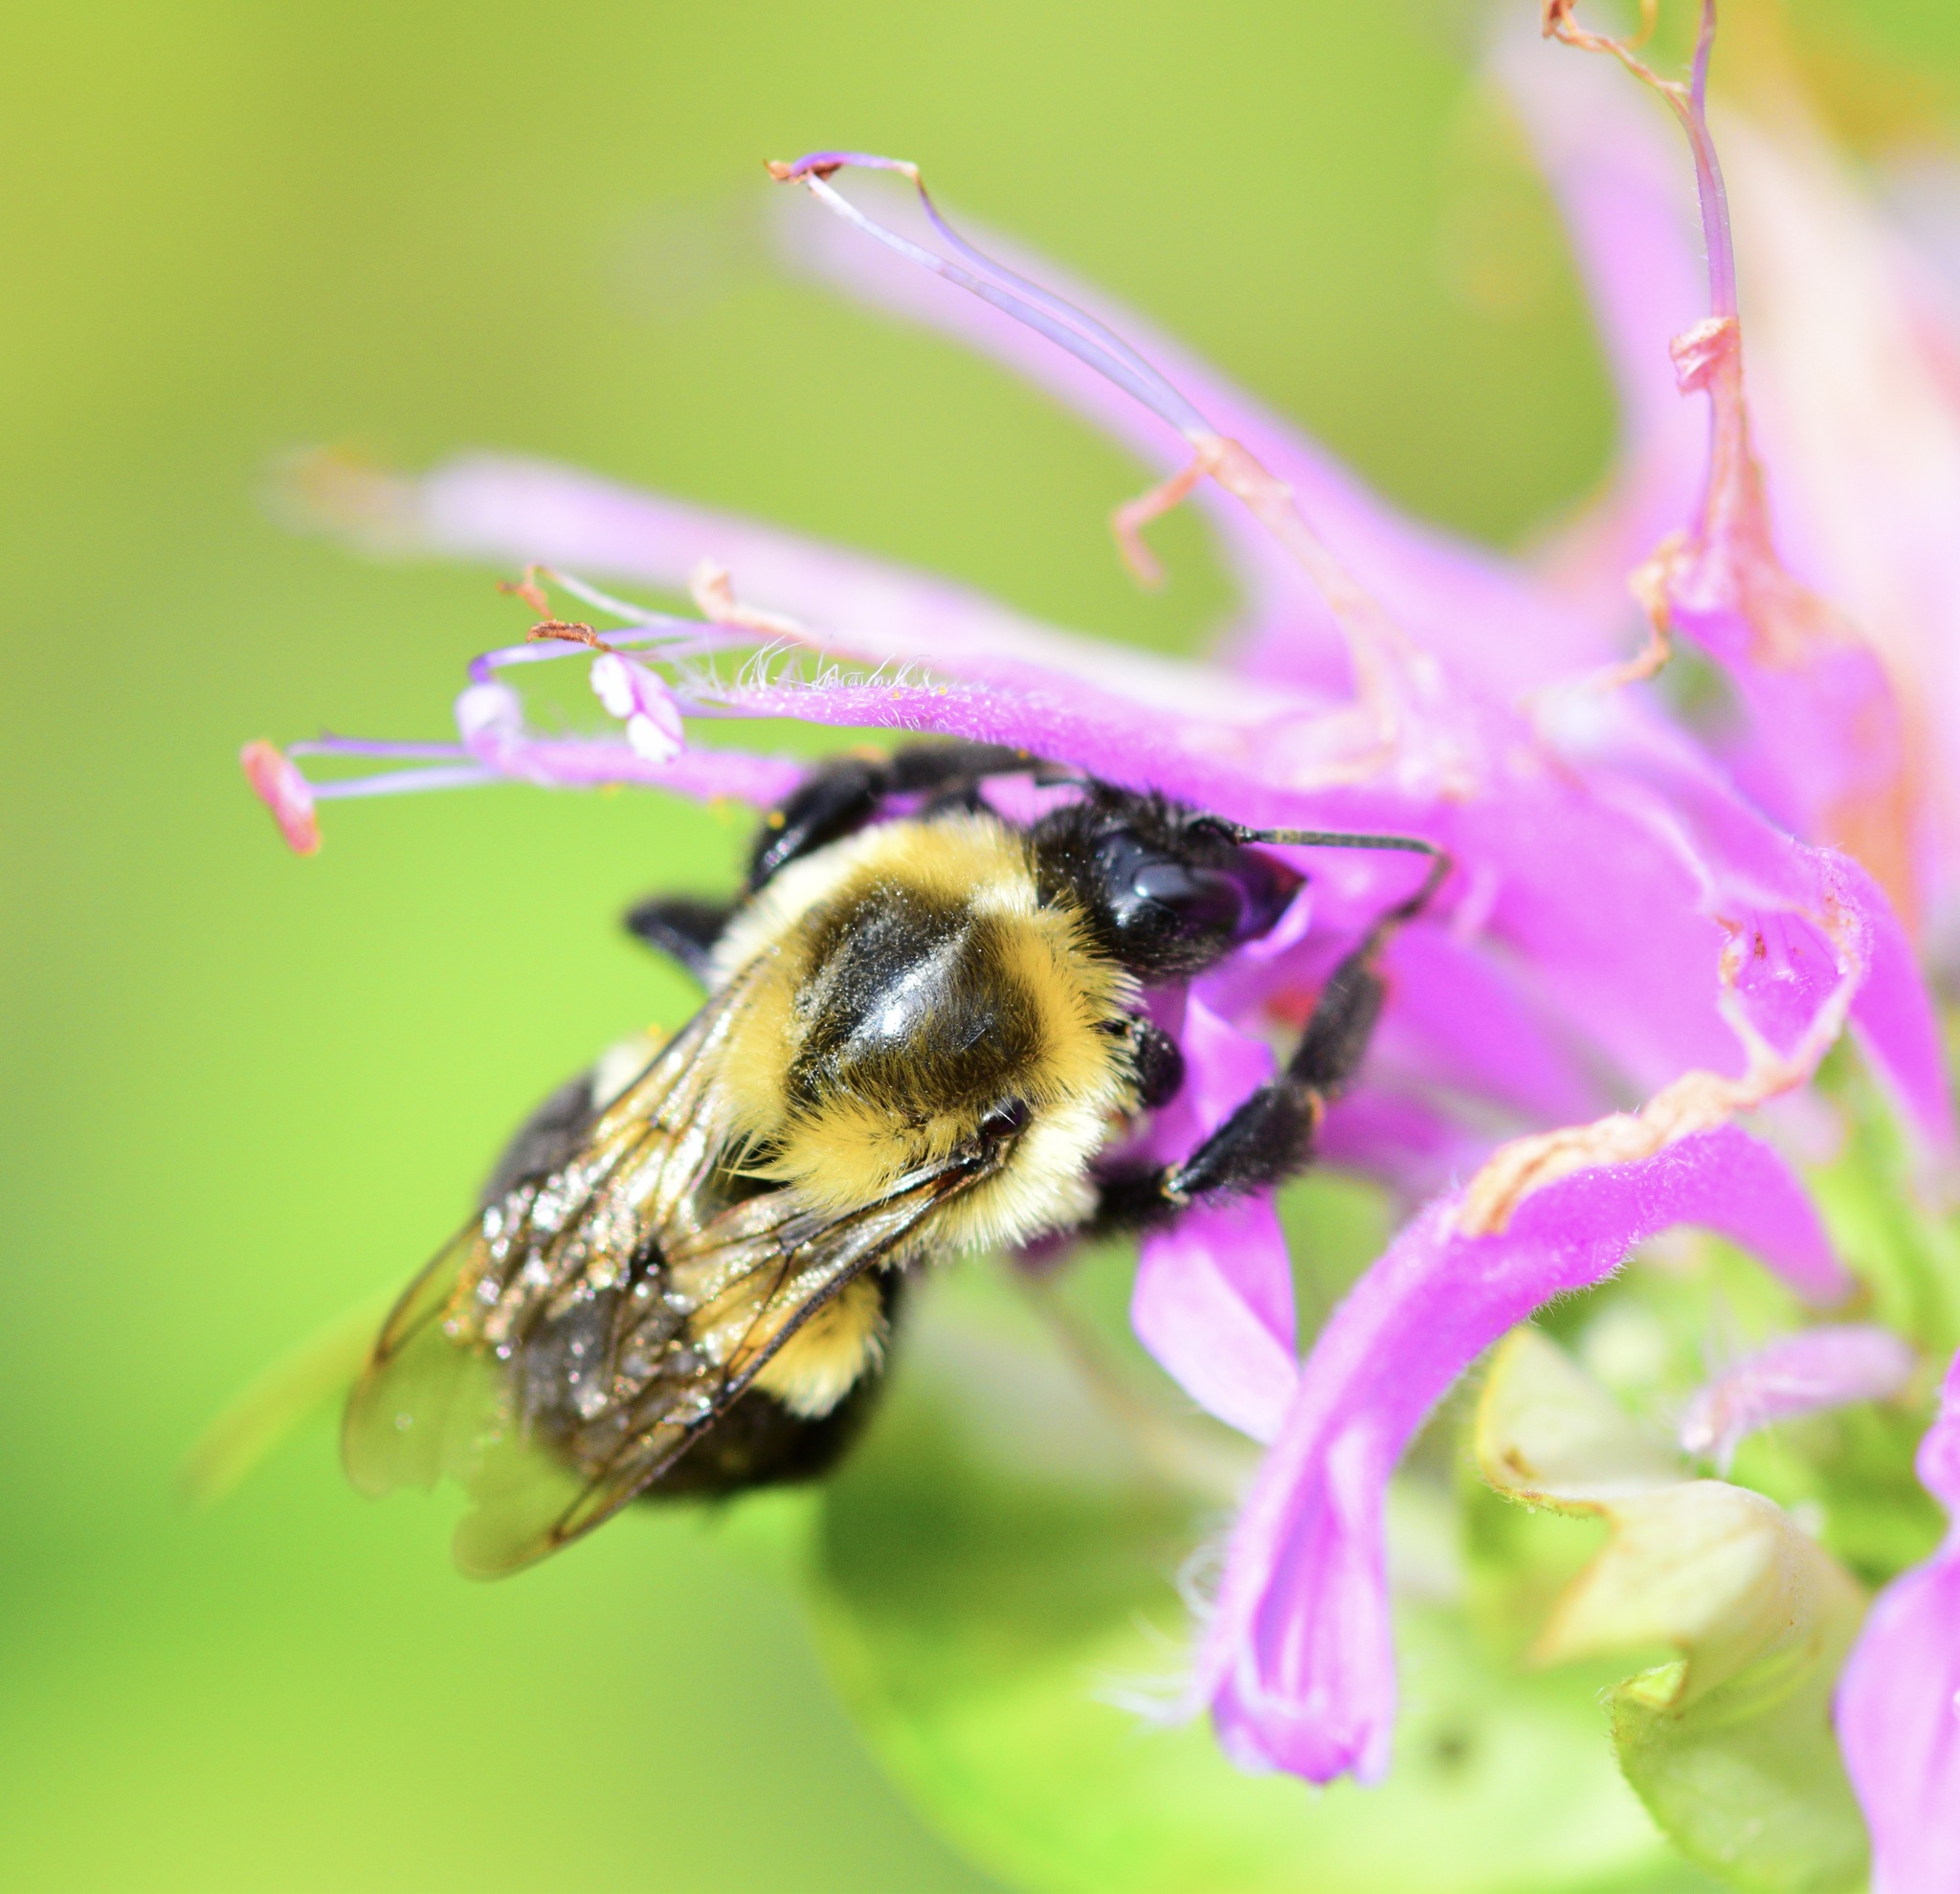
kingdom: Animalia
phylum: Arthropoda
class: Insecta
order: Hymenoptera
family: Apidae
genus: Bombus
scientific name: Bombus impatiens
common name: Common eastern bumble bee
